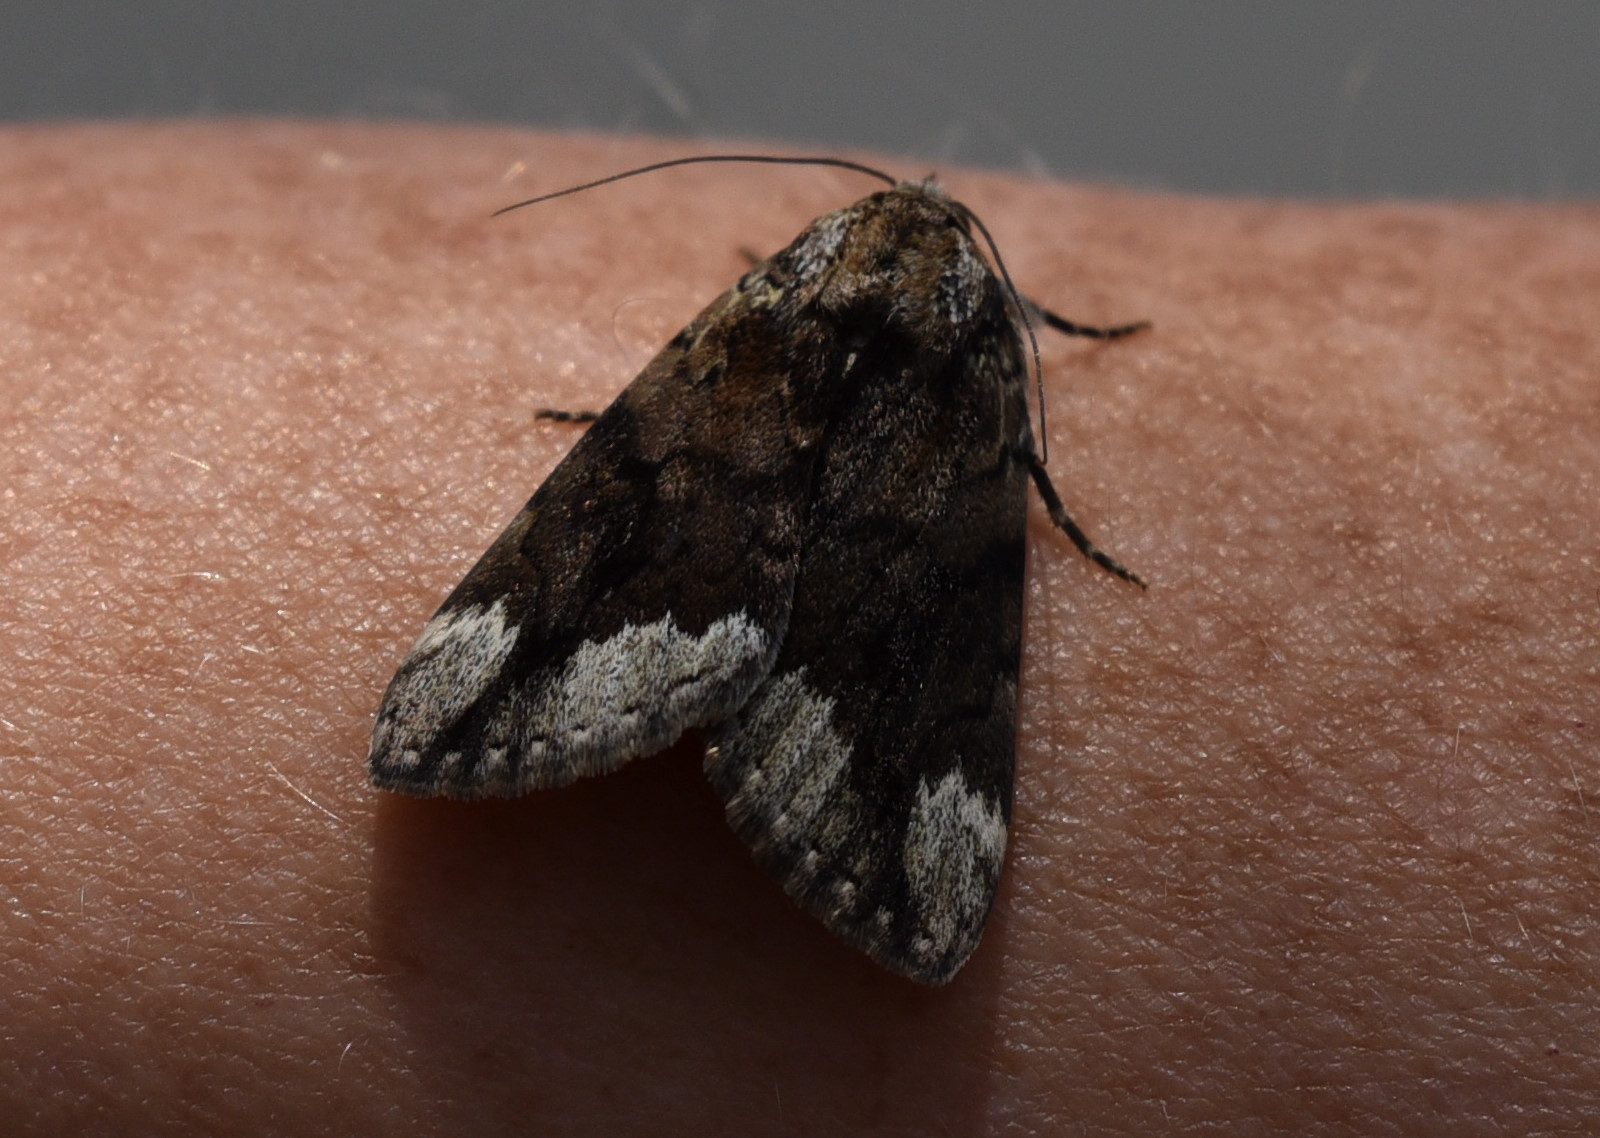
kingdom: Animalia
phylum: Arthropoda
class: Insecta
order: Lepidoptera
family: Erebidae
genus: Catocala
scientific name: Catocala micronympha
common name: Little nymph underwing
